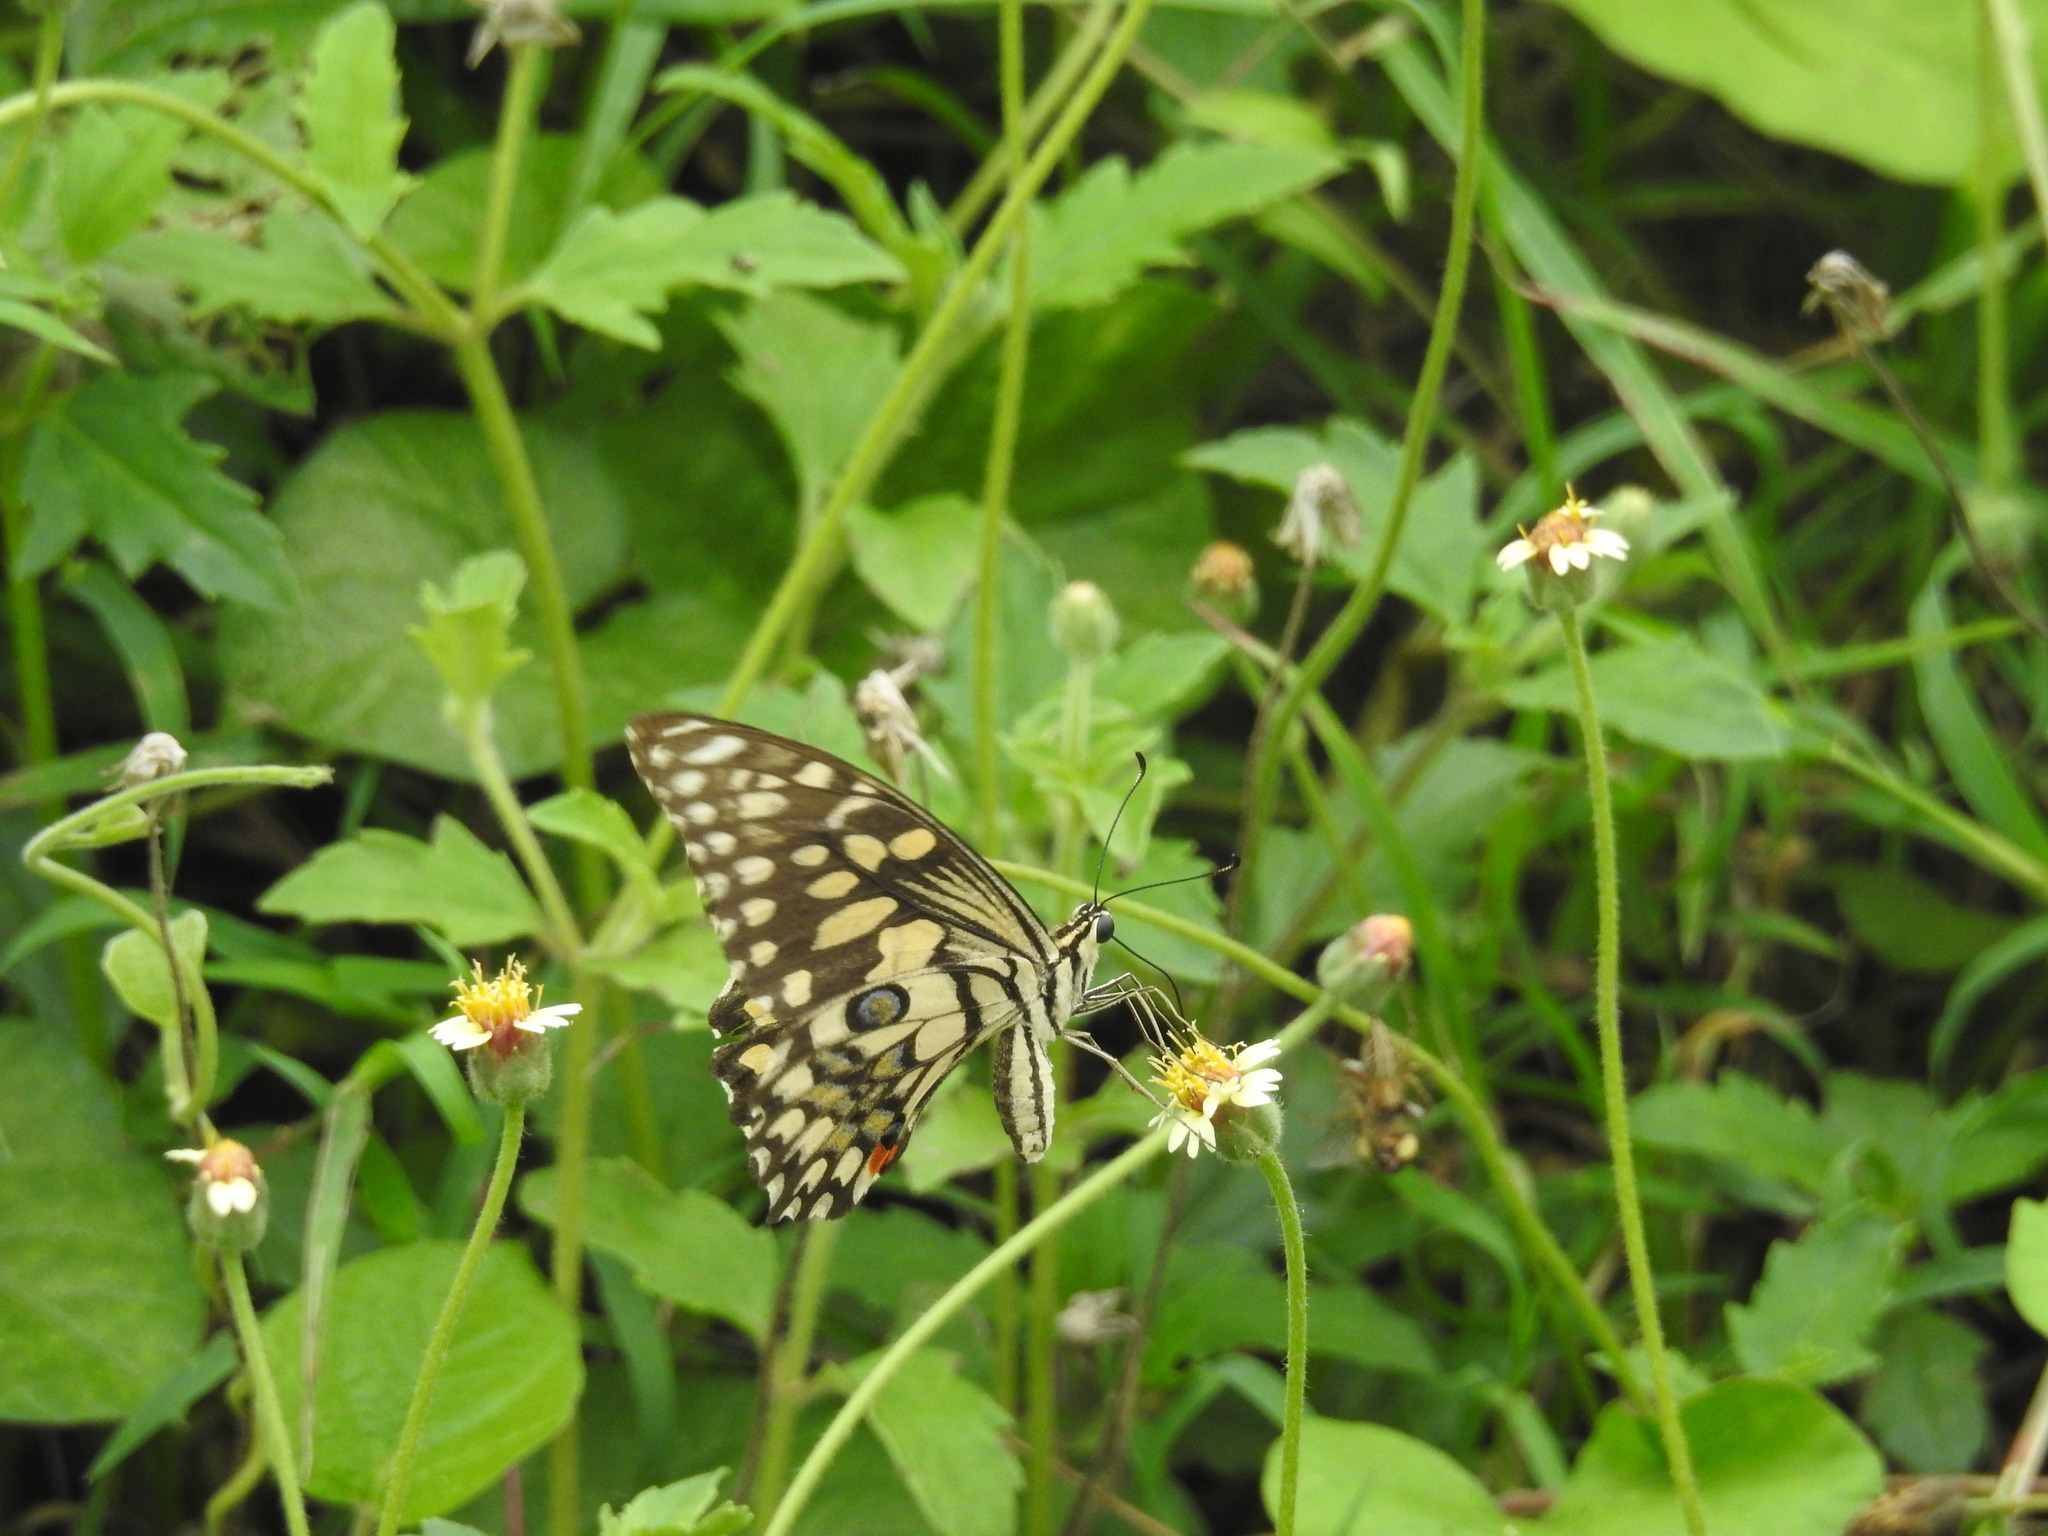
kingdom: Animalia
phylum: Arthropoda
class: Insecta
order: Lepidoptera
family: Papilionidae
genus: Papilio
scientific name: Papilio demoleus
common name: Lime butterfly
